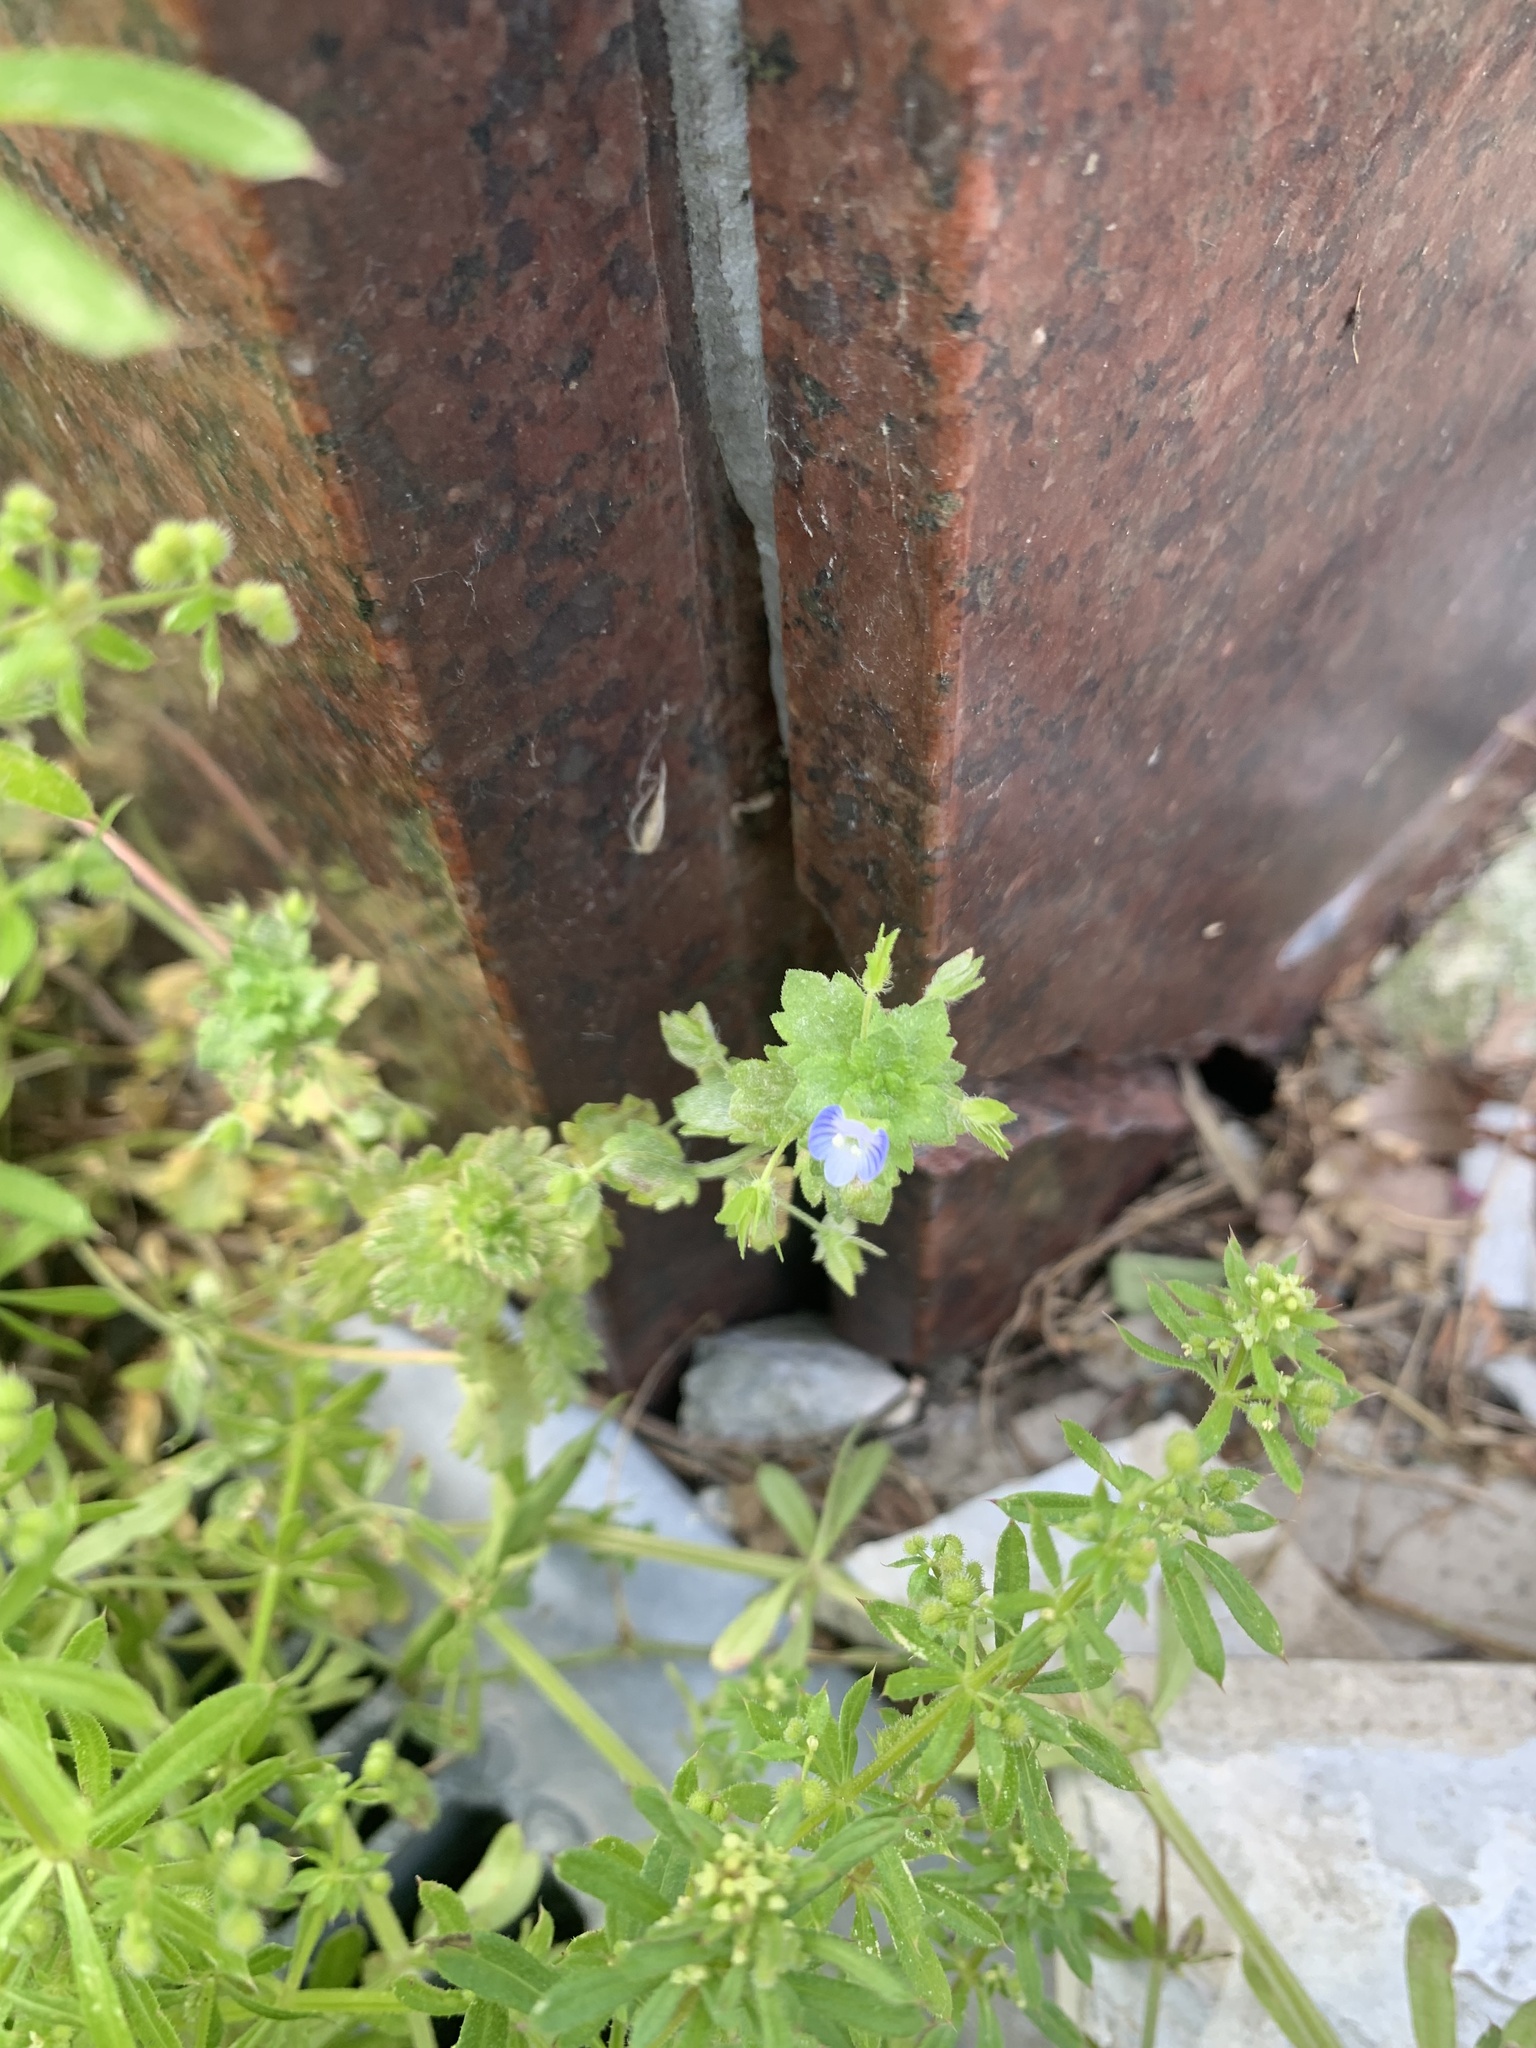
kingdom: Plantae
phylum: Tracheophyta
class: Magnoliopsida
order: Lamiales
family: Plantaginaceae
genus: Veronica
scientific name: Veronica persica
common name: Common field-speedwell
